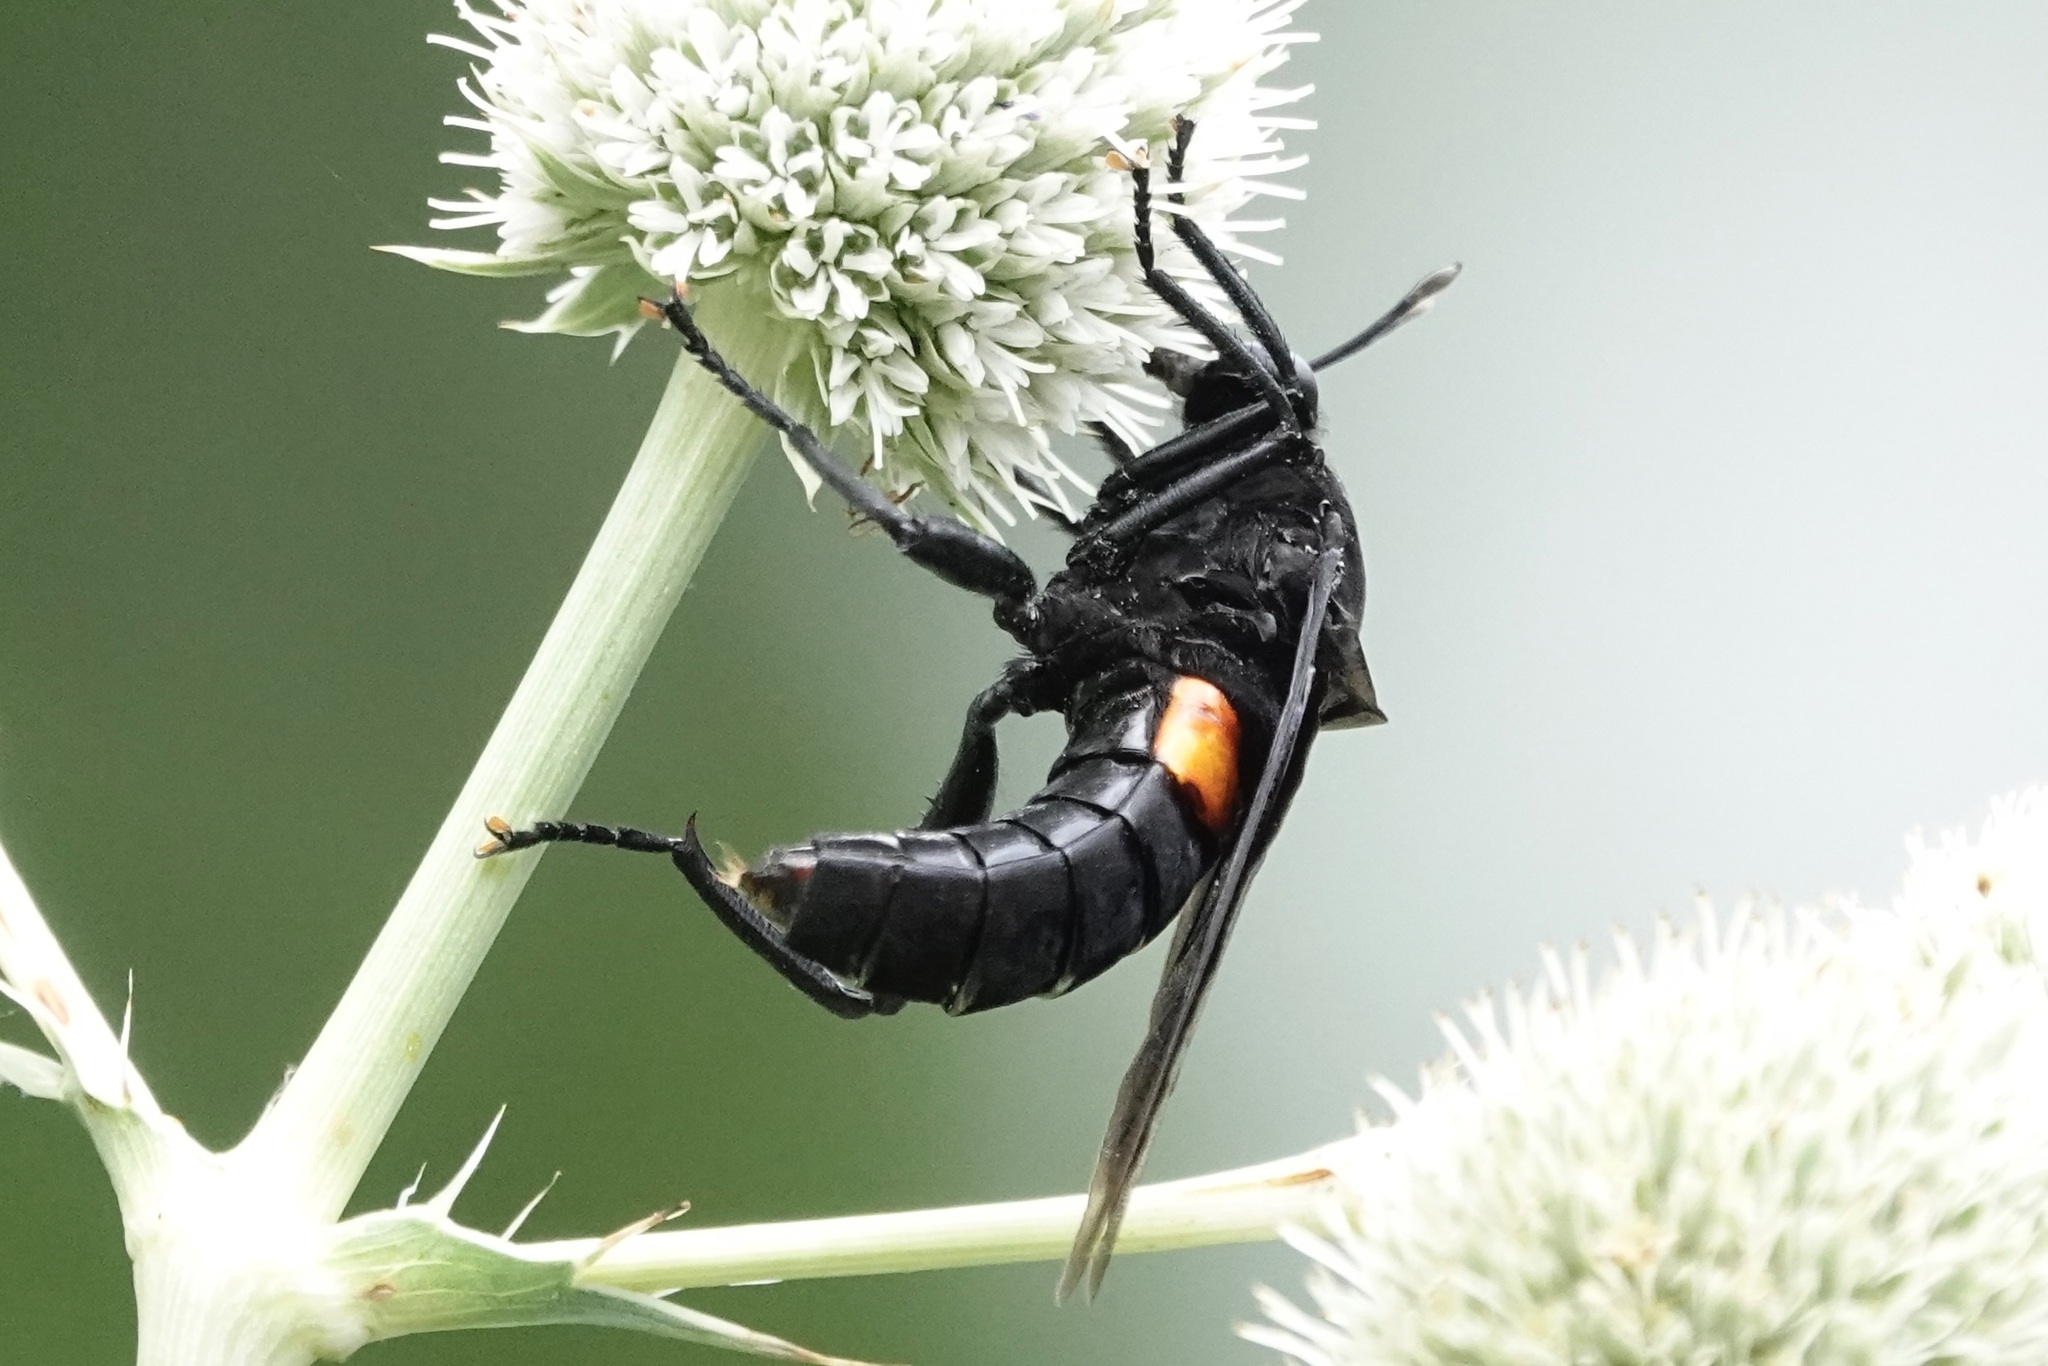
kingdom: Animalia
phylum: Arthropoda
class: Insecta
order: Diptera
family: Mydidae
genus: Mydas
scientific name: Mydas clavatus
